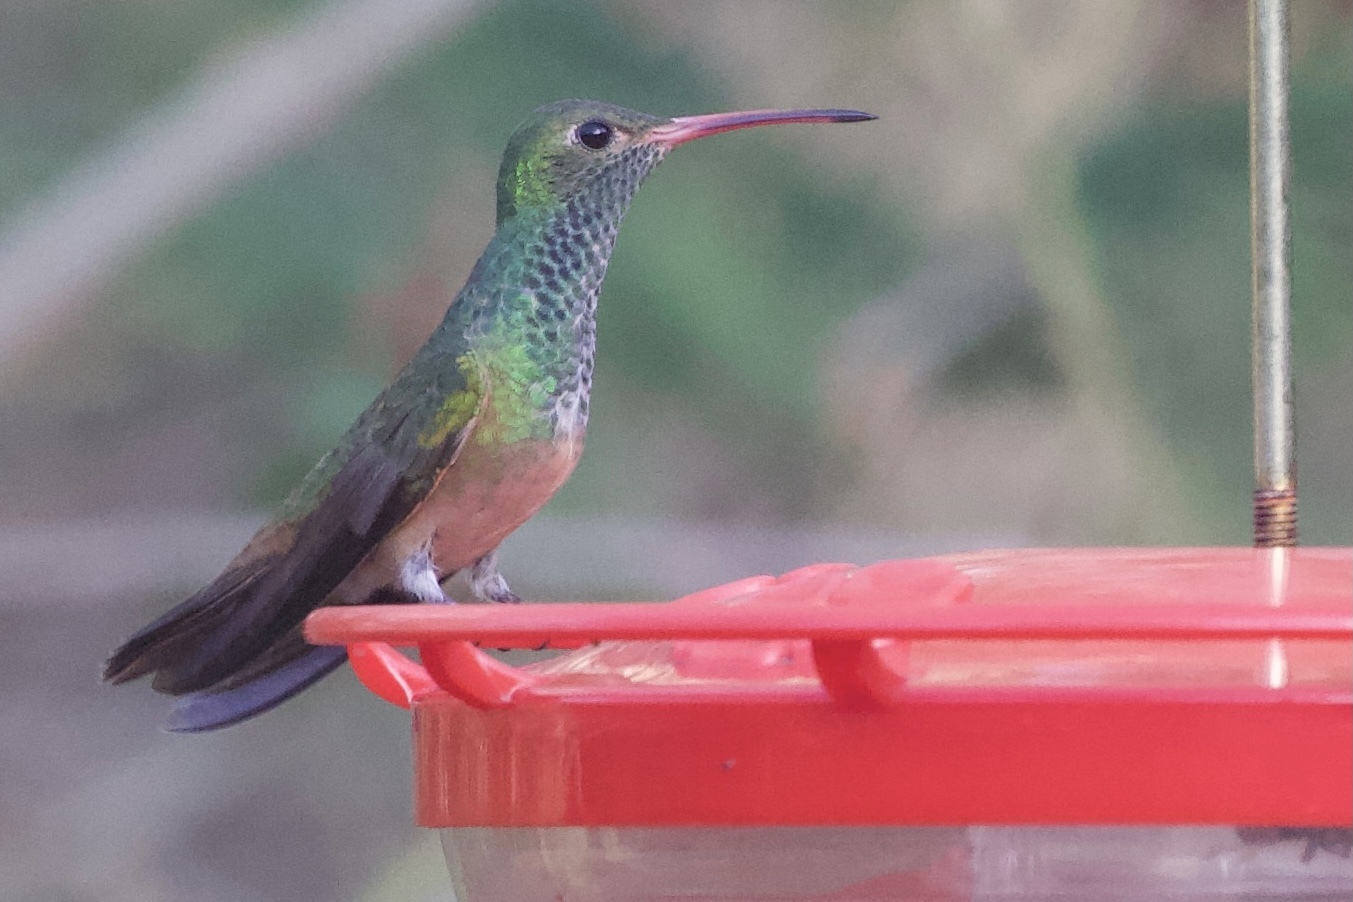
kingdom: Animalia
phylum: Chordata
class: Aves
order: Apodiformes
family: Trochilidae
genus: Amazilia
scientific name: Amazilia yucatanensis
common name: Buff-bellied hummingbird
